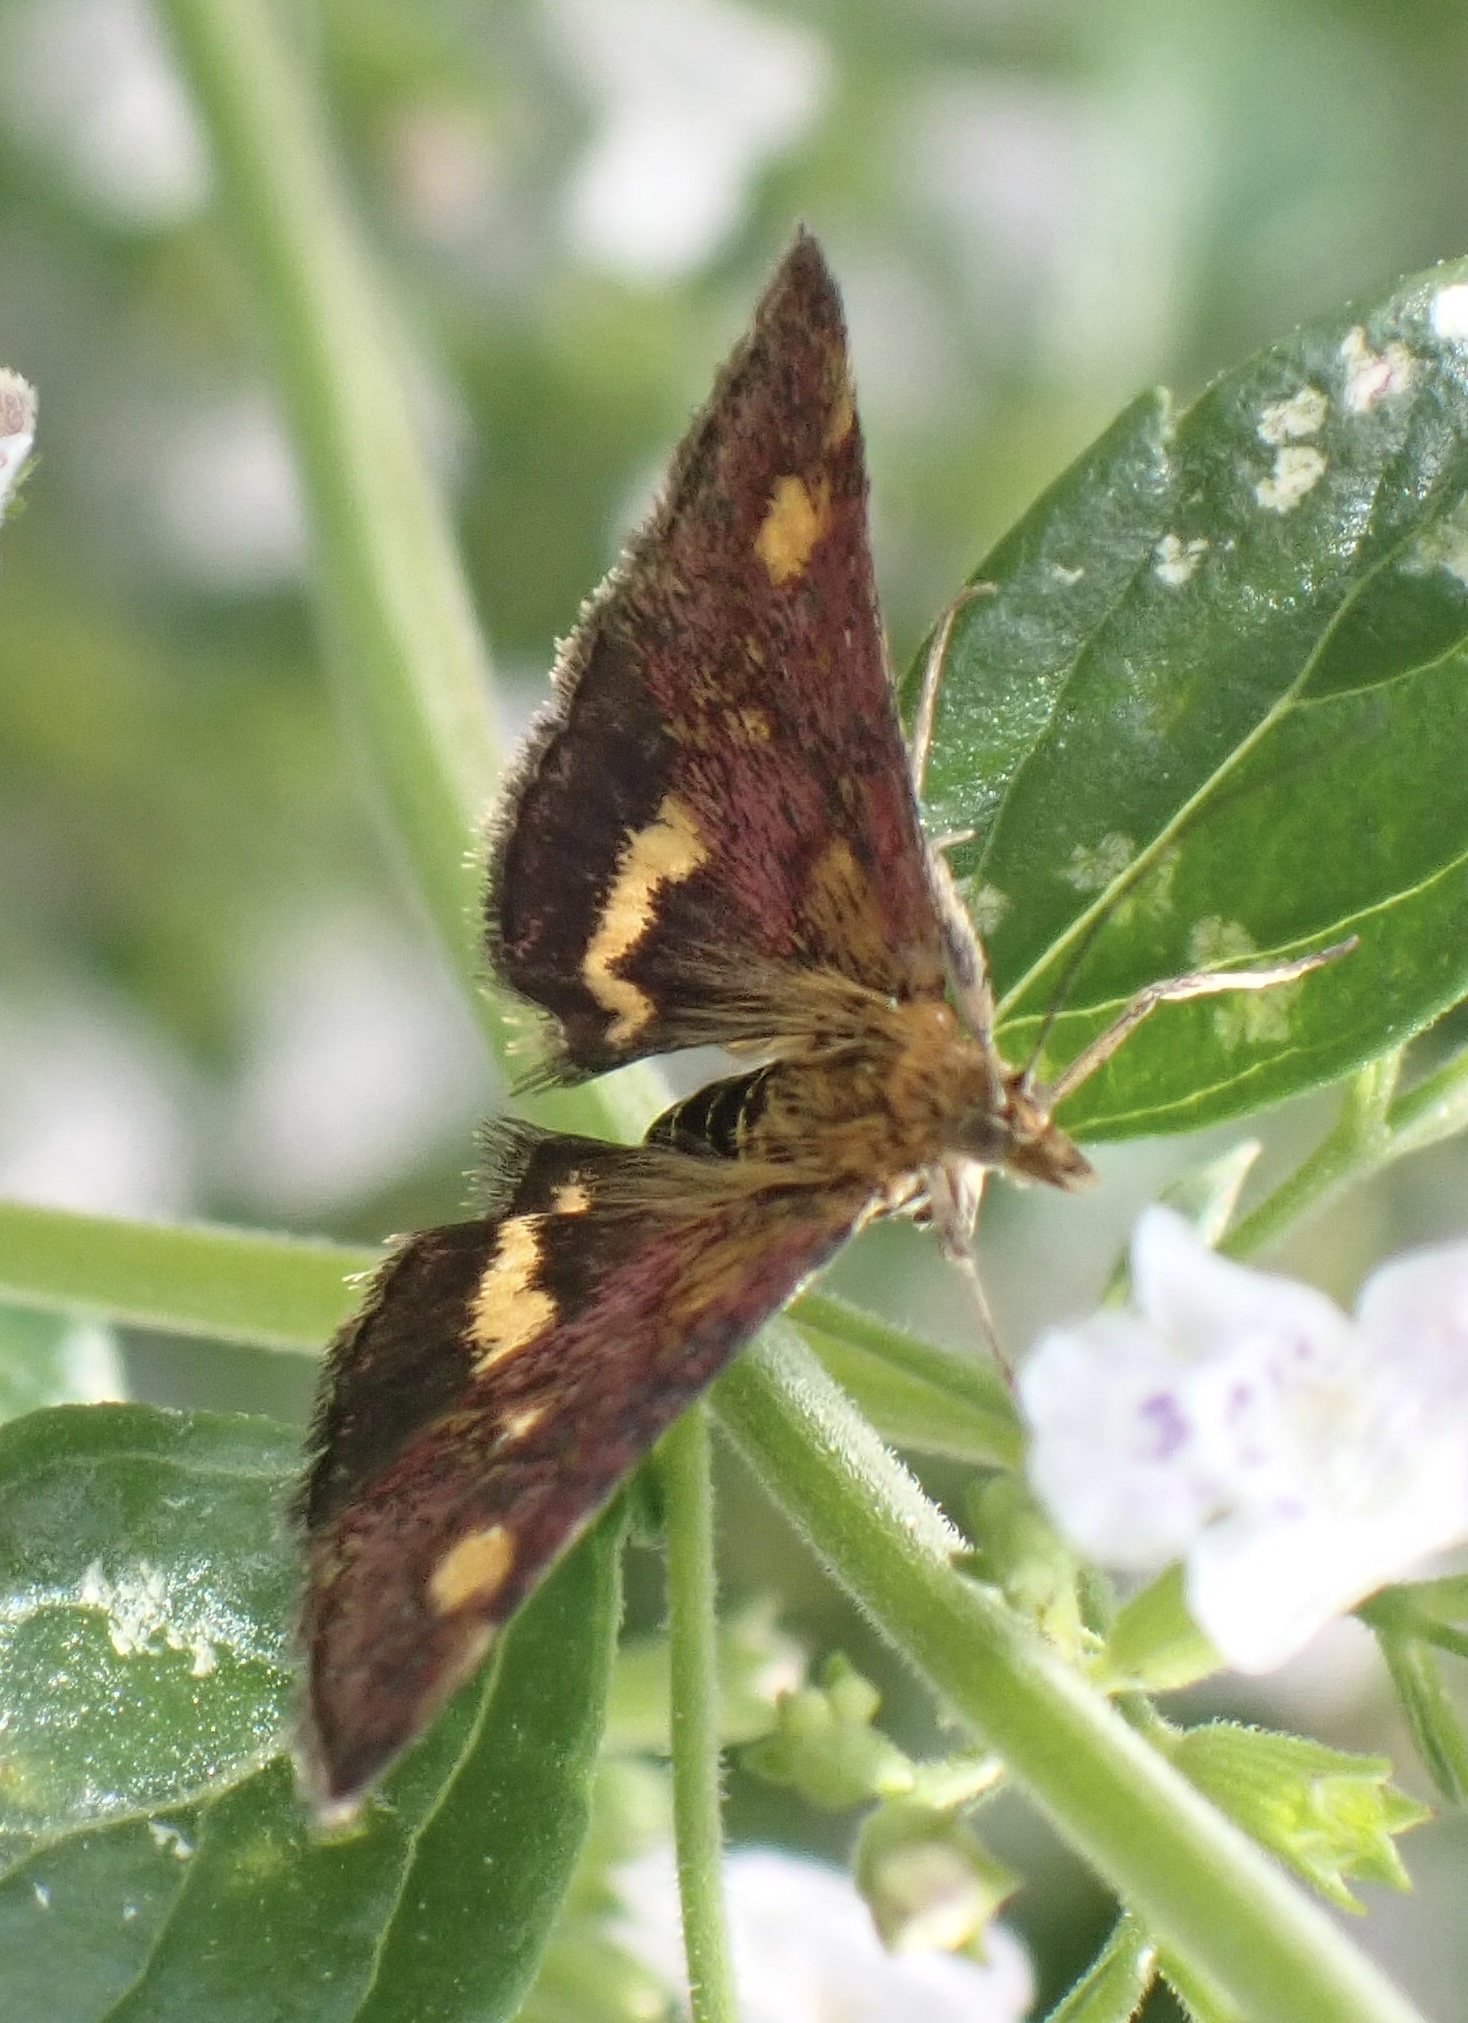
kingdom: Animalia
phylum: Arthropoda
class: Insecta
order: Lepidoptera
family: Crambidae
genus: Pyrausta
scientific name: Pyrausta aurata
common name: Small purple & gold
